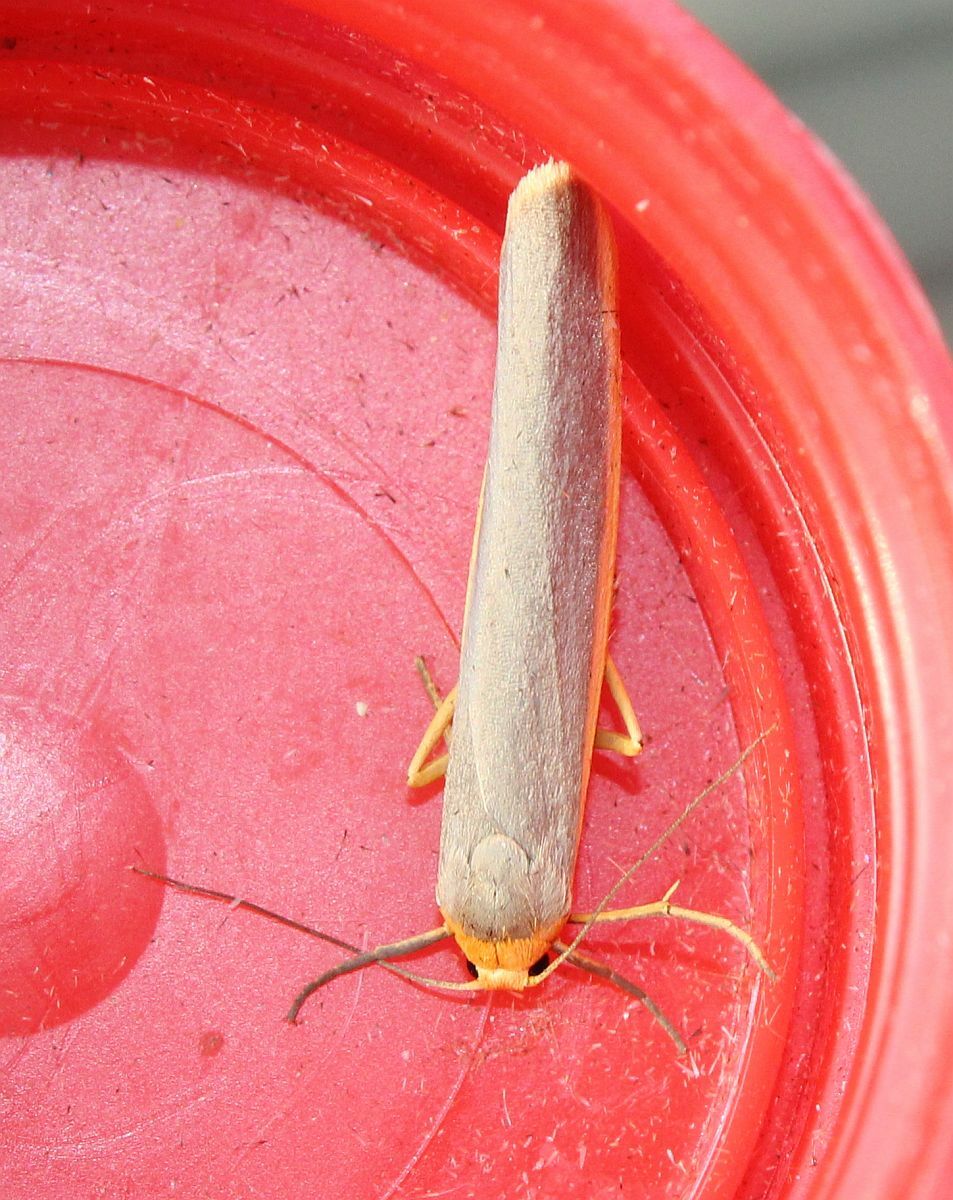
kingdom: Animalia
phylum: Arthropoda
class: Insecta
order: Lepidoptera
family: Erebidae
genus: Manulea
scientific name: Manulea complana
